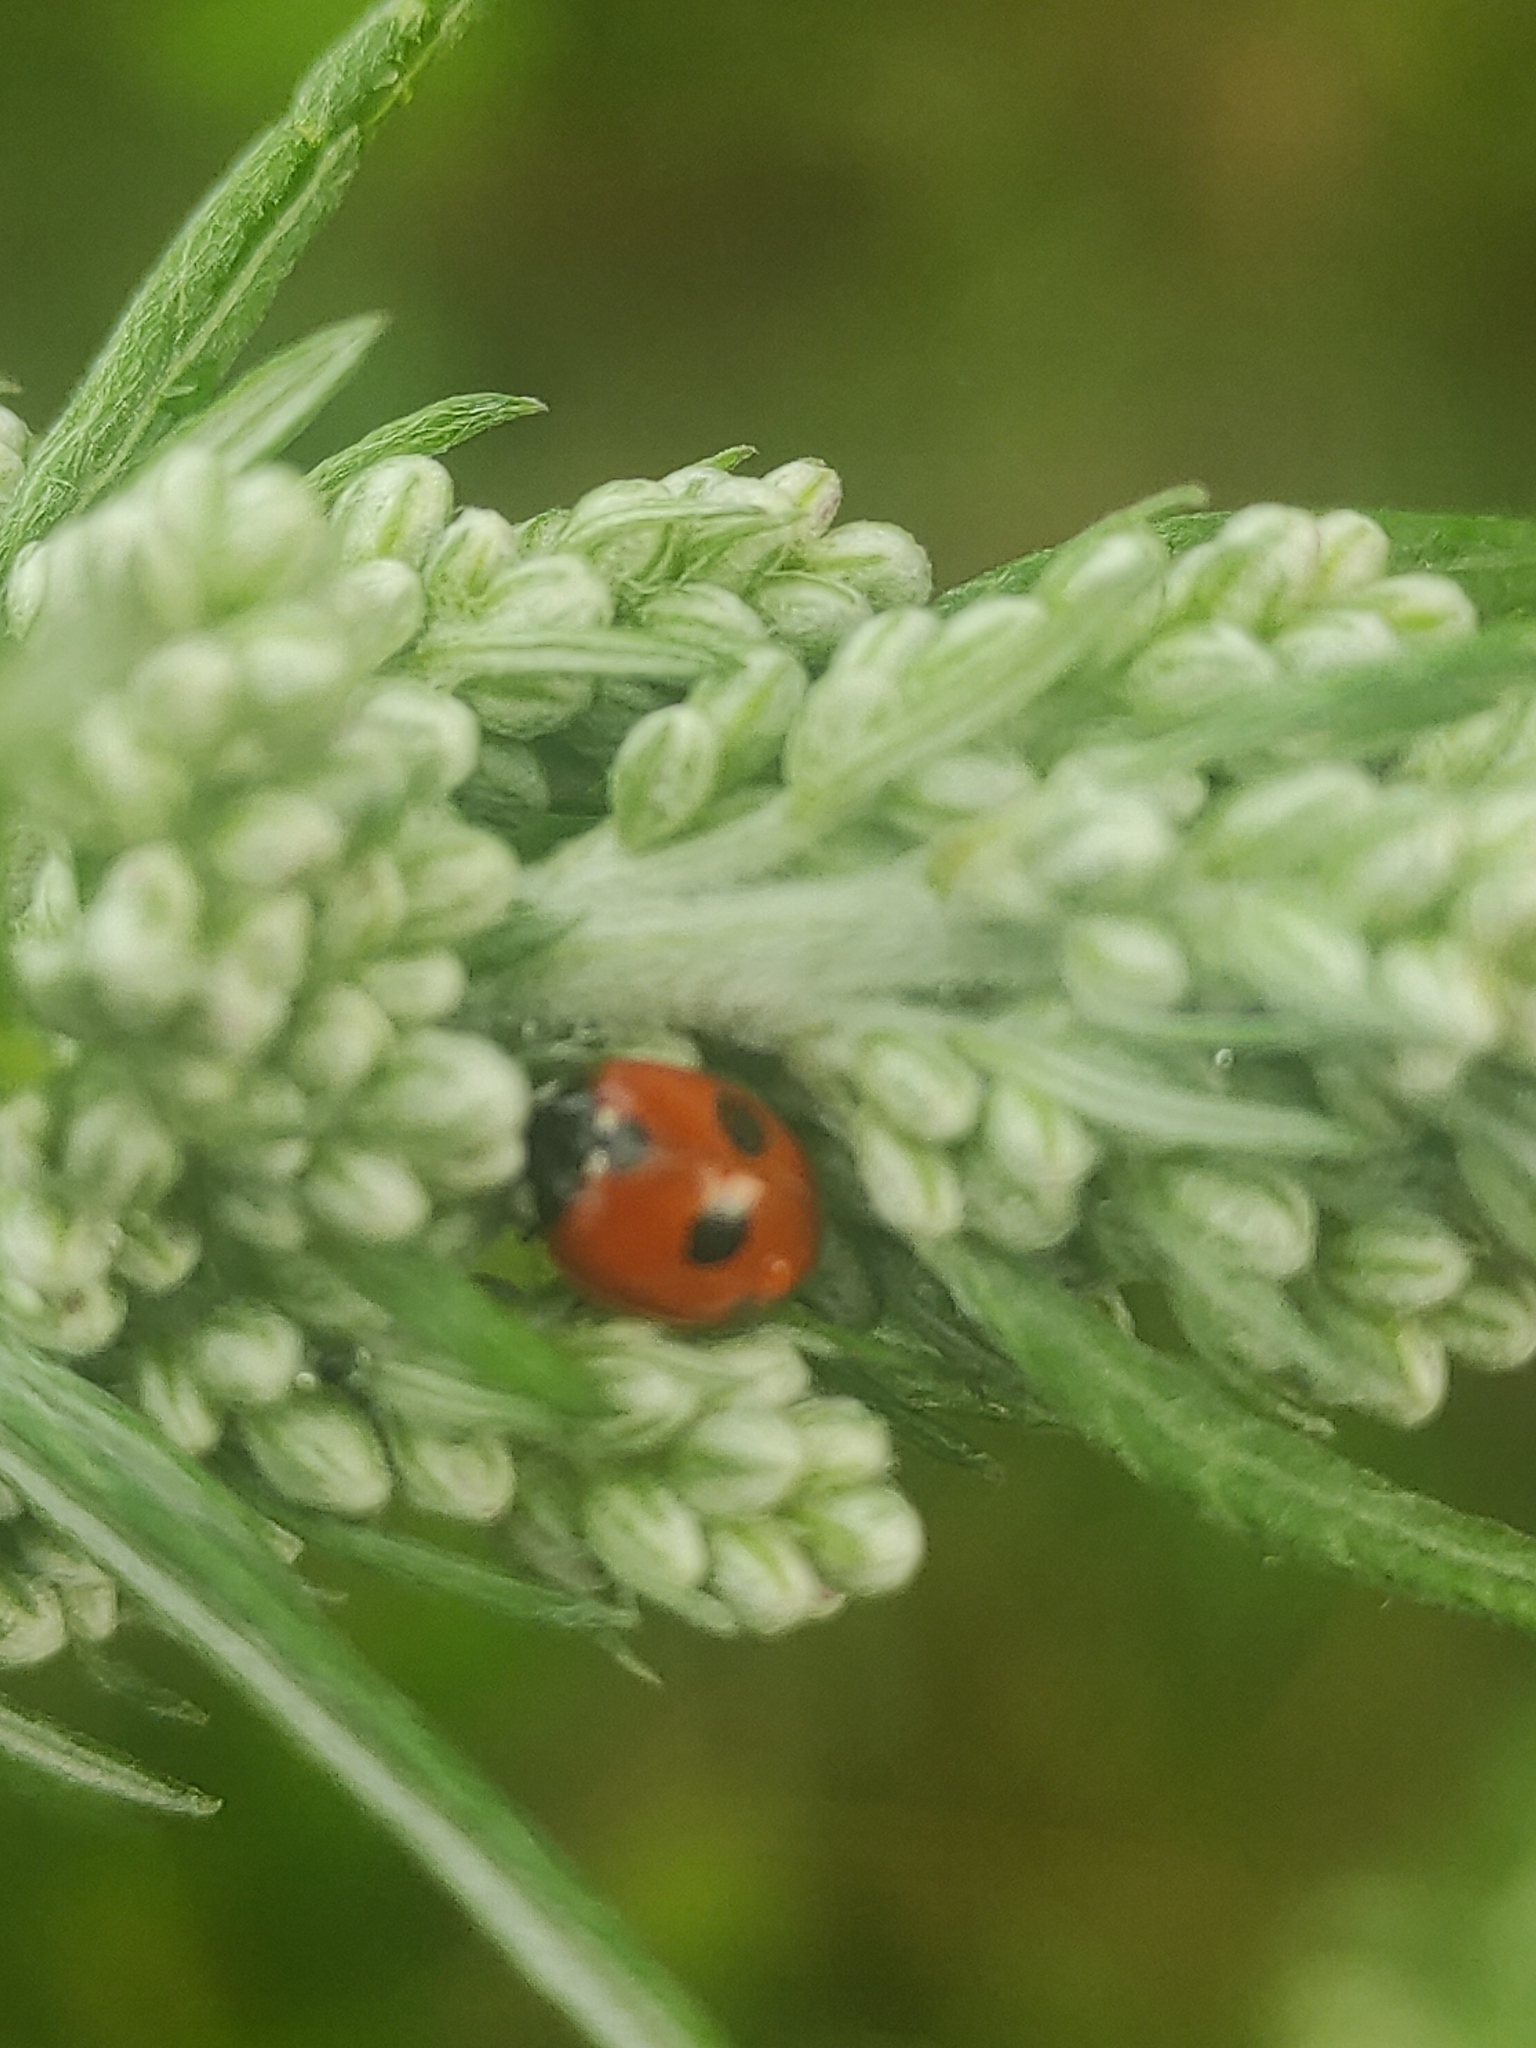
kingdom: Animalia
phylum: Arthropoda
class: Insecta
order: Coleoptera
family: Coccinellidae
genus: Coccinella
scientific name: Coccinella quinquepunctata
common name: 5-spot ladybird
